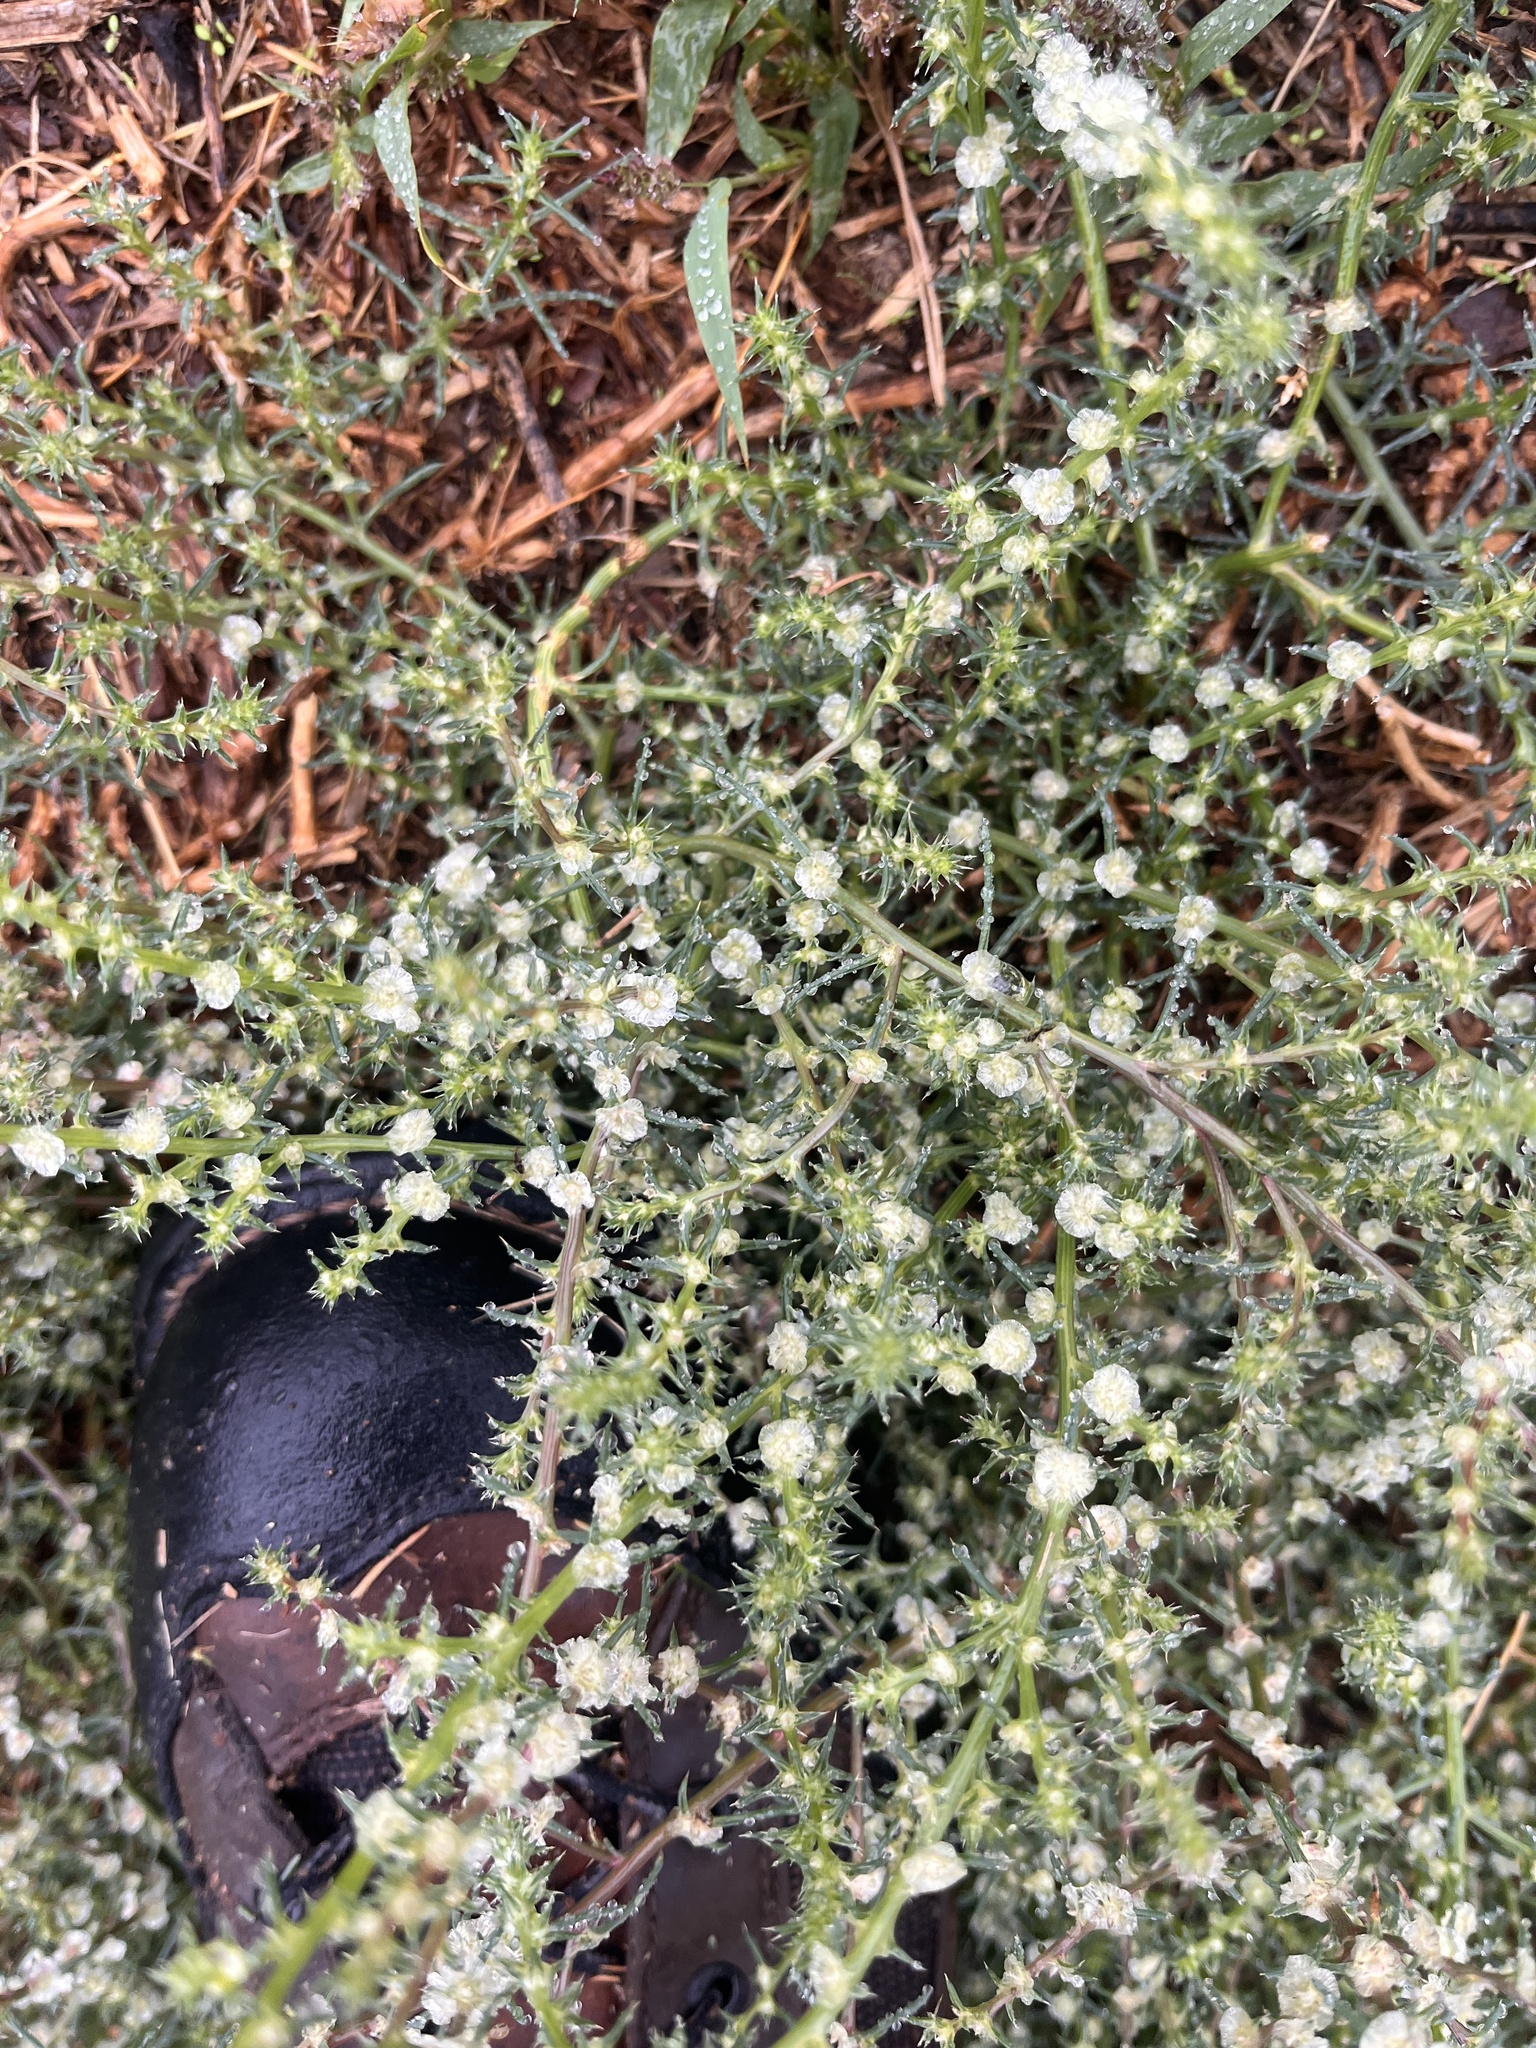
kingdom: Plantae
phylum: Tracheophyta
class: Magnoliopsida
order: Caryophyllales
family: Amaranthaceae
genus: Salsola
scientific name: Salsola tragus
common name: Prickly russian thistle
